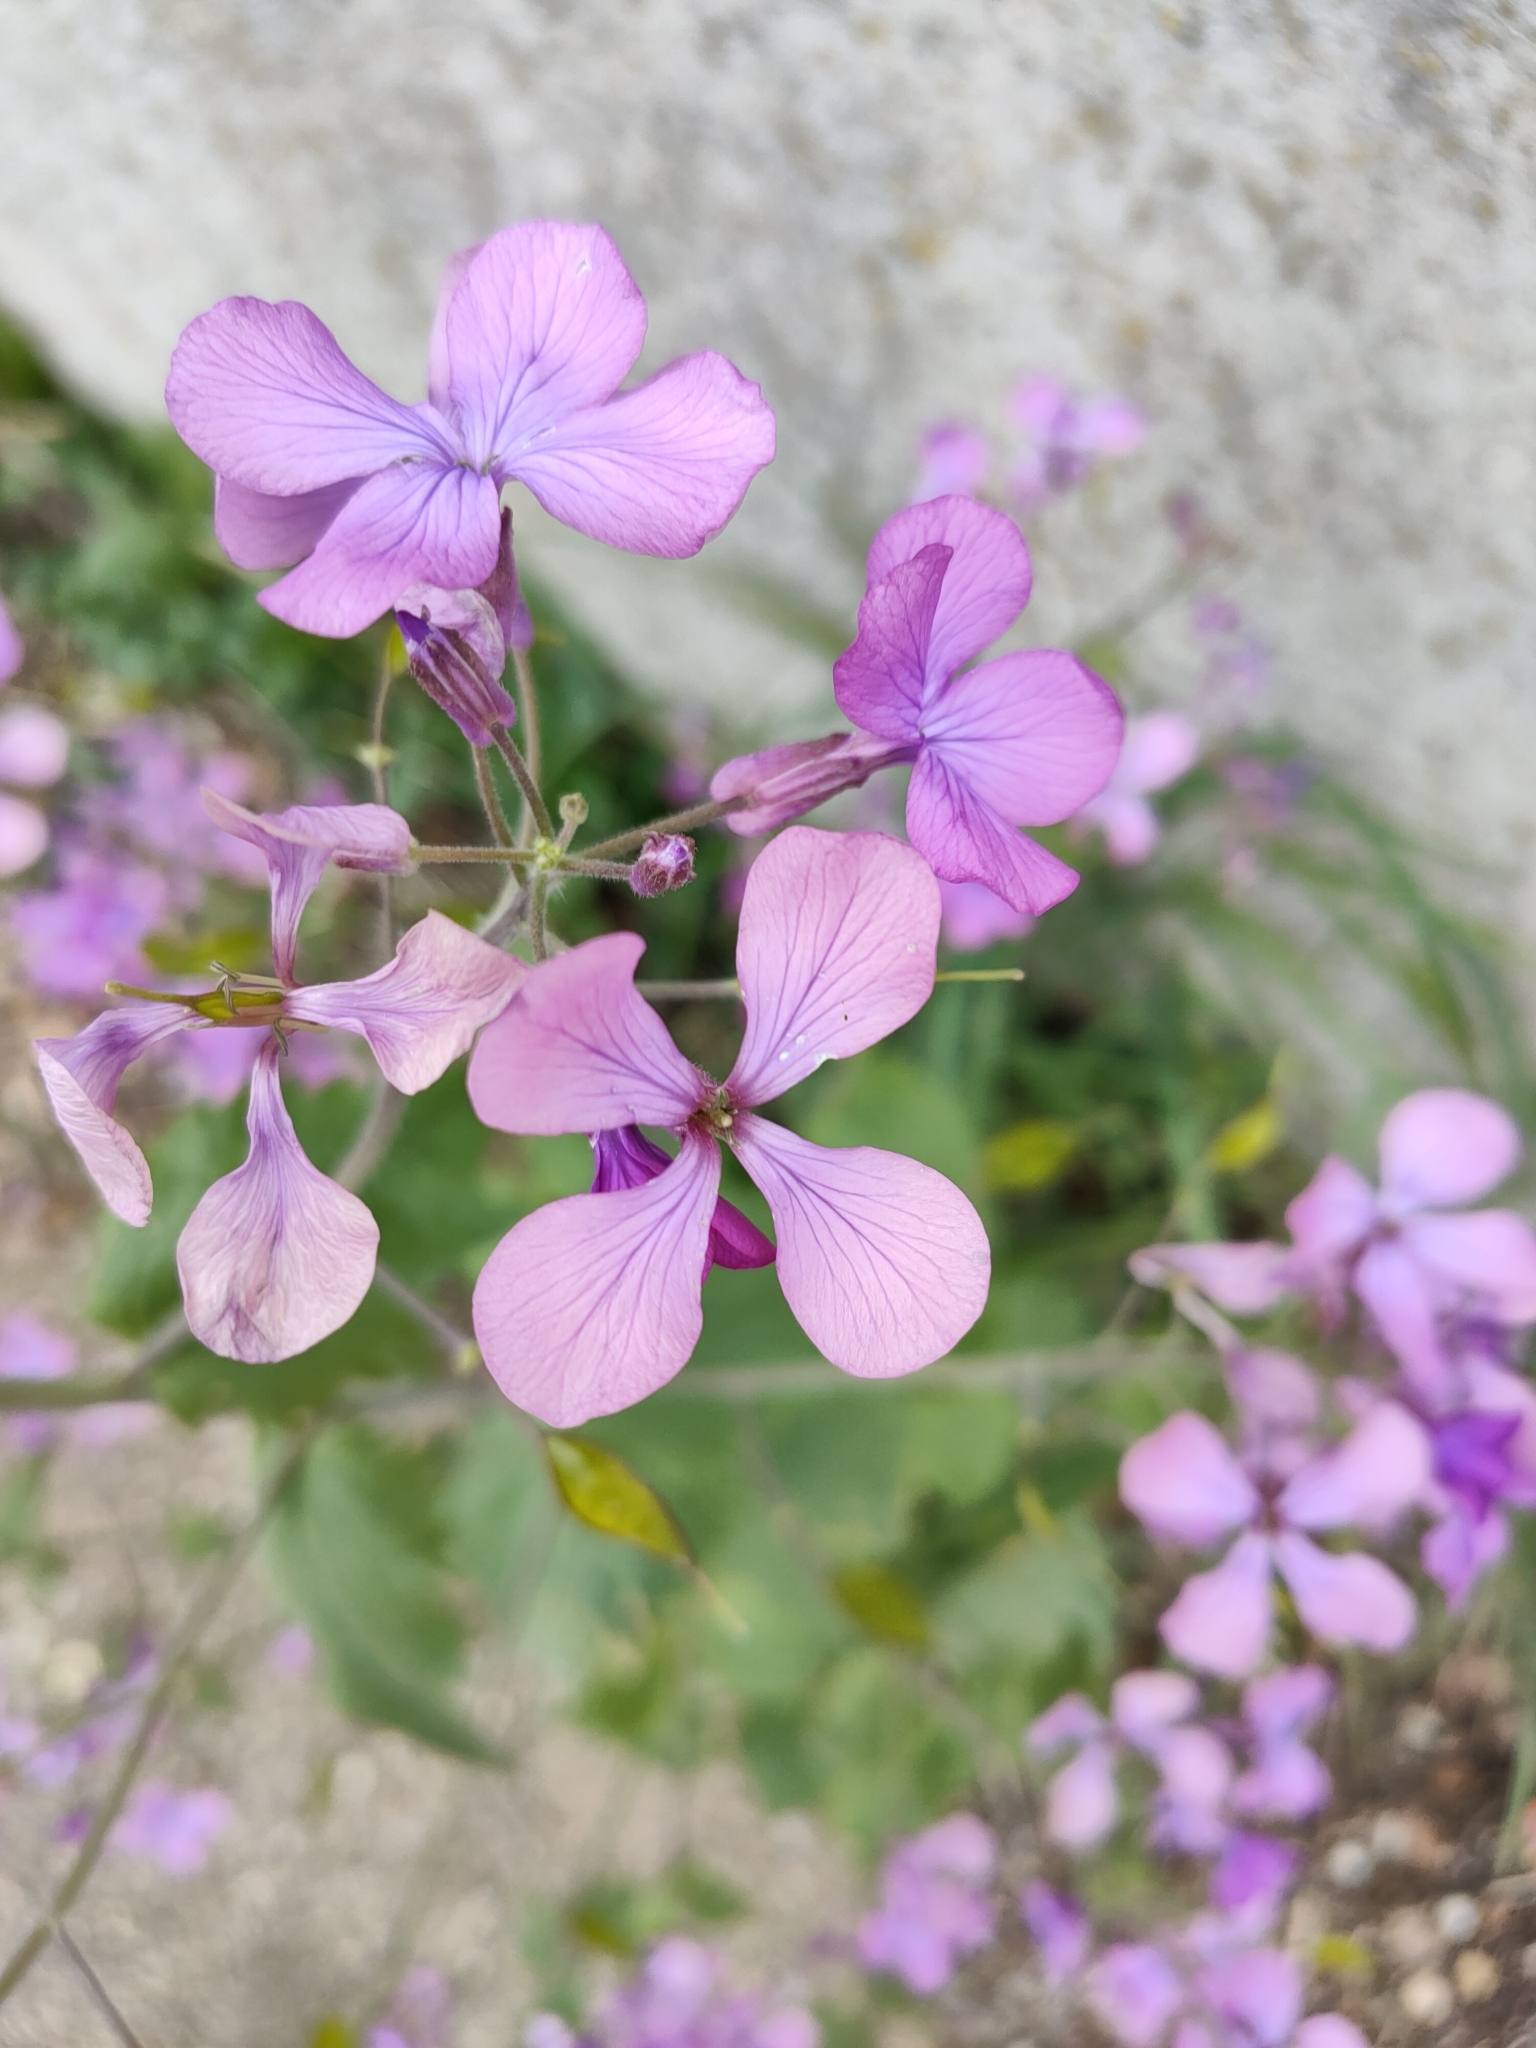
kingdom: Plantae
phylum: Tracheophyta
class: Magnoliopsida
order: Brassicales
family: Brassicaceae
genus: Lunaria
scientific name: Lunaria annua
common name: Honesty
